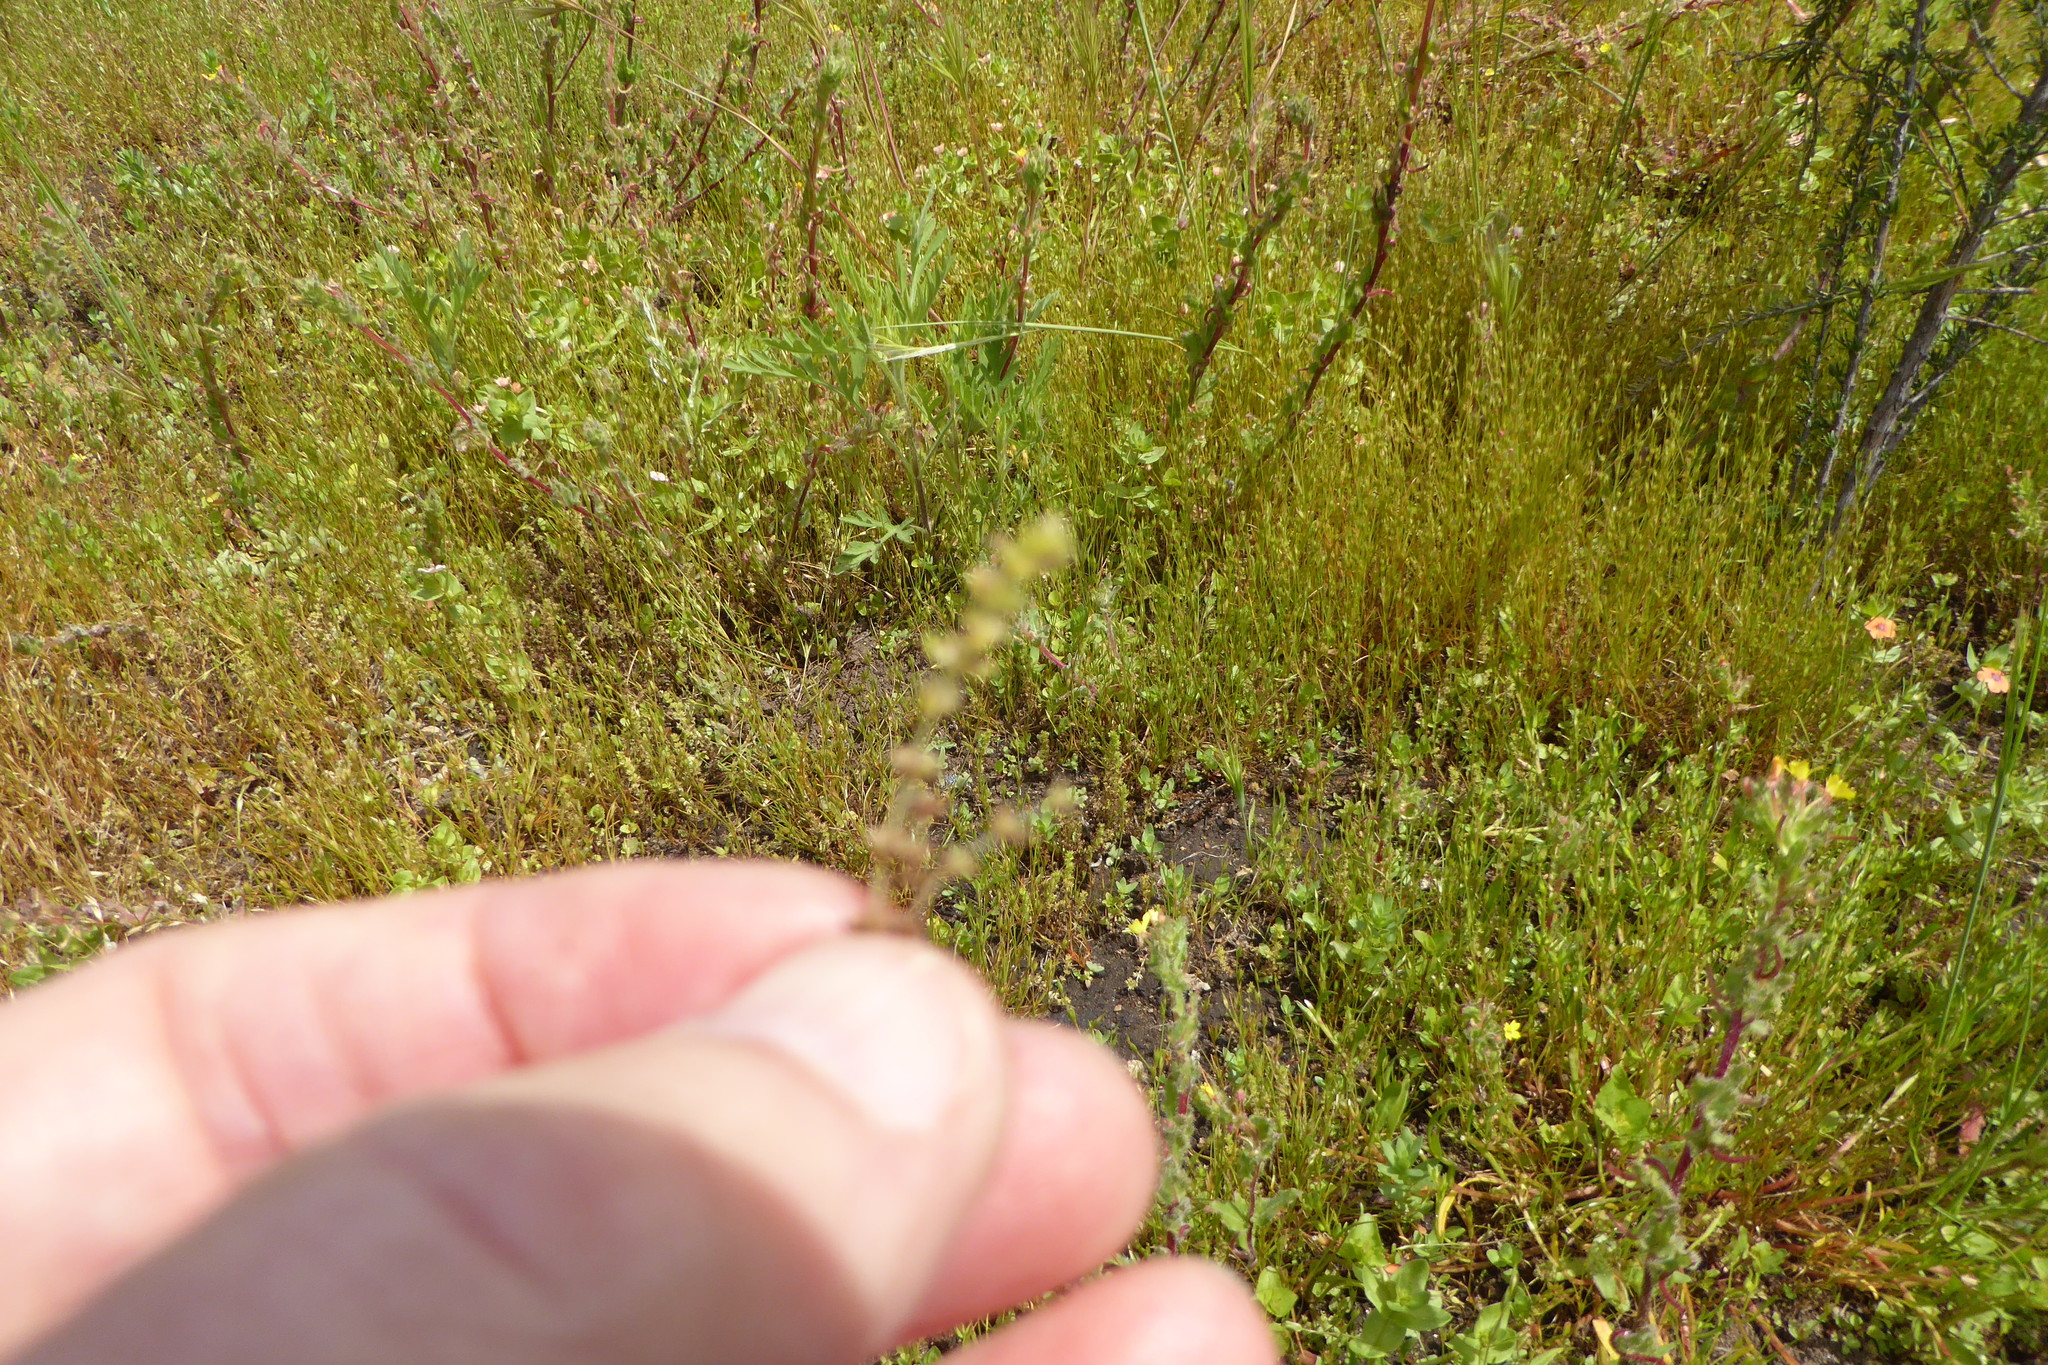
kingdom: Plantae
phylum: Tracheophyta
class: Magnoliopsida
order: Saxifragales
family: Crassulaceae
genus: Crassula
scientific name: Crassula tillaea
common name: Mossy stonecrop
